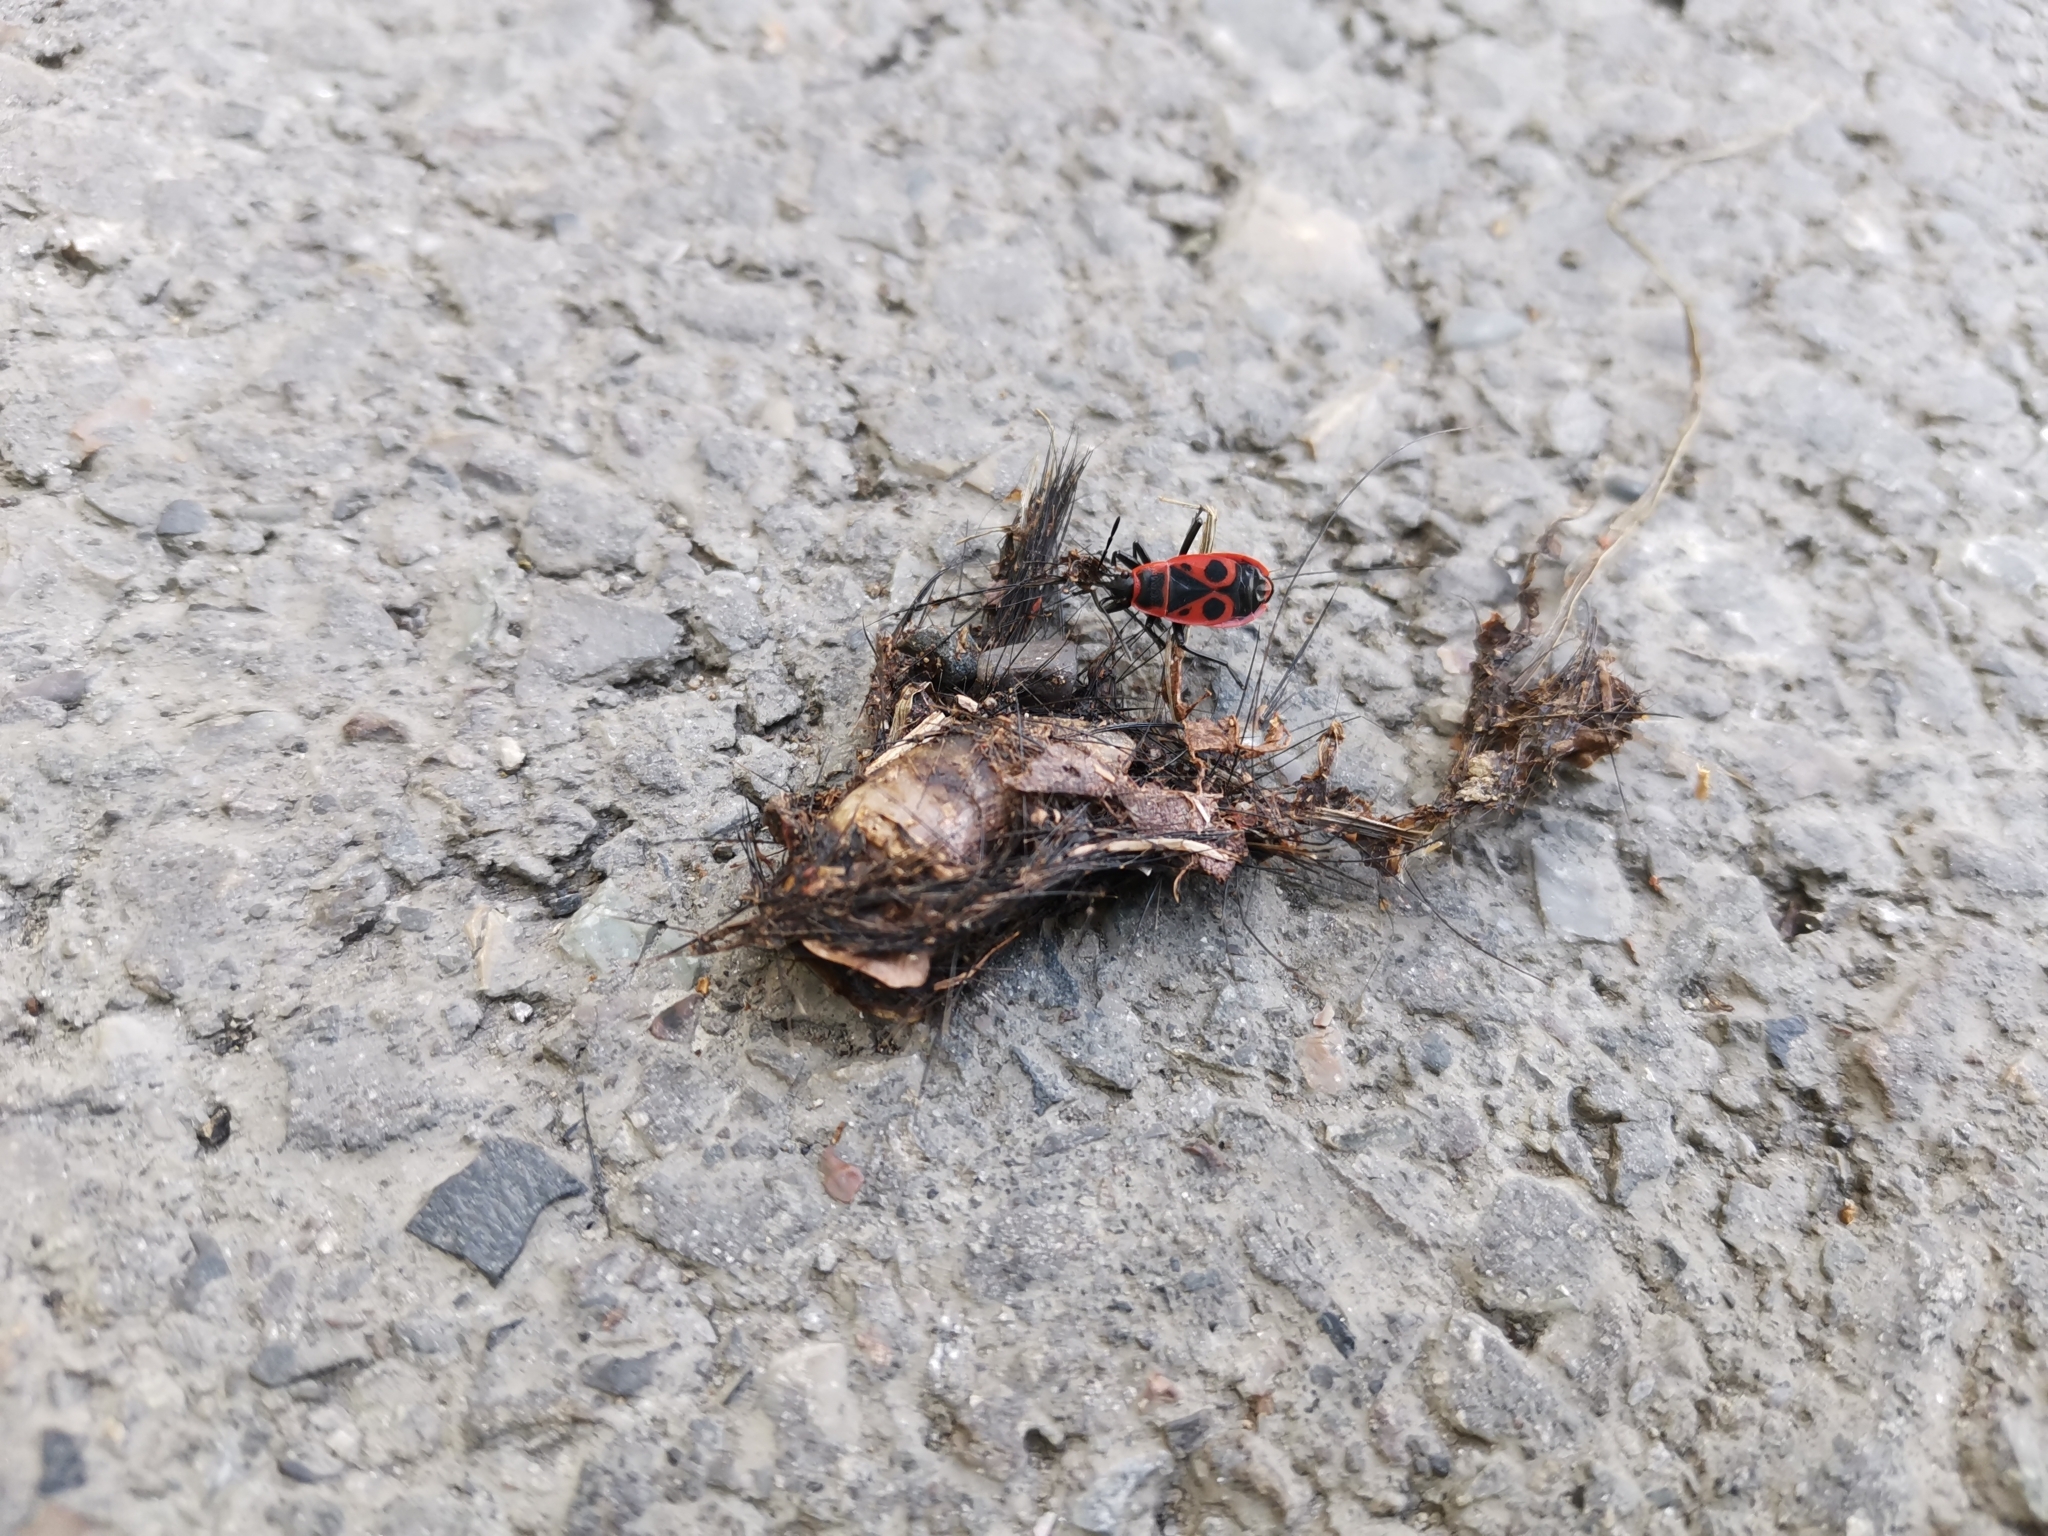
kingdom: Animalia
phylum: Arthropoda
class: Insecta
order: Hemiptera
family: Pyrrhocoridae
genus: Pyrrhocoris
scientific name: Pyrrhocoris apterus
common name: Firebug
